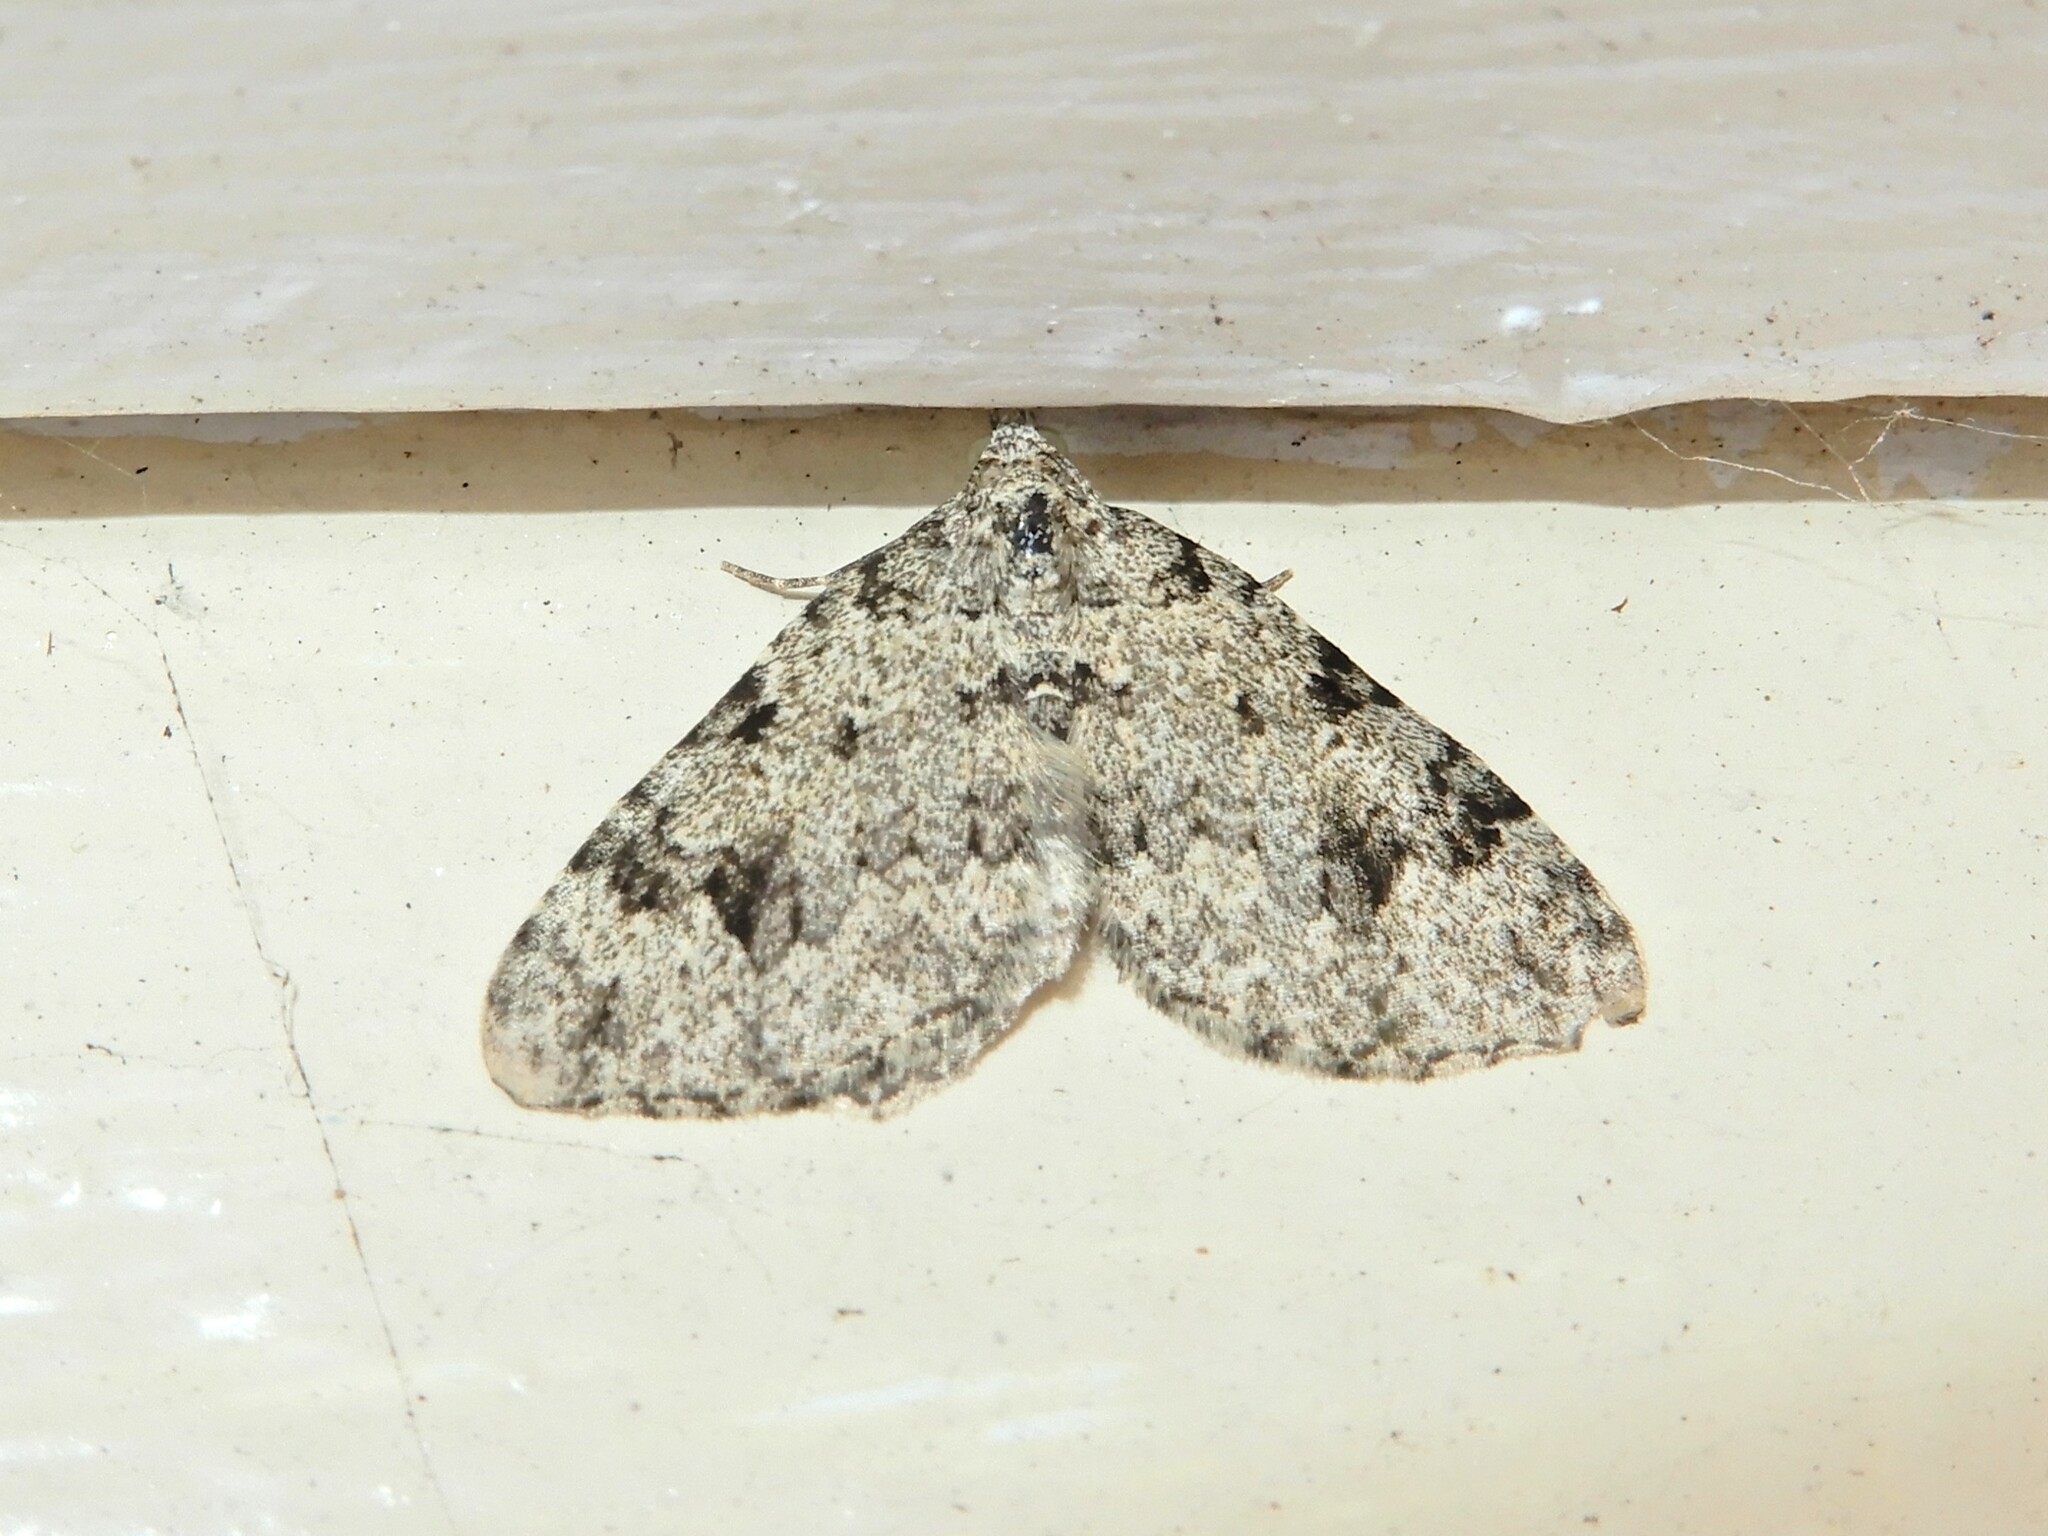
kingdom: Animalia
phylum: Arthropoda
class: Insecta
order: Lepidoptera
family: Geometridae
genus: Helastia
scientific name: Helastia cinerearia
